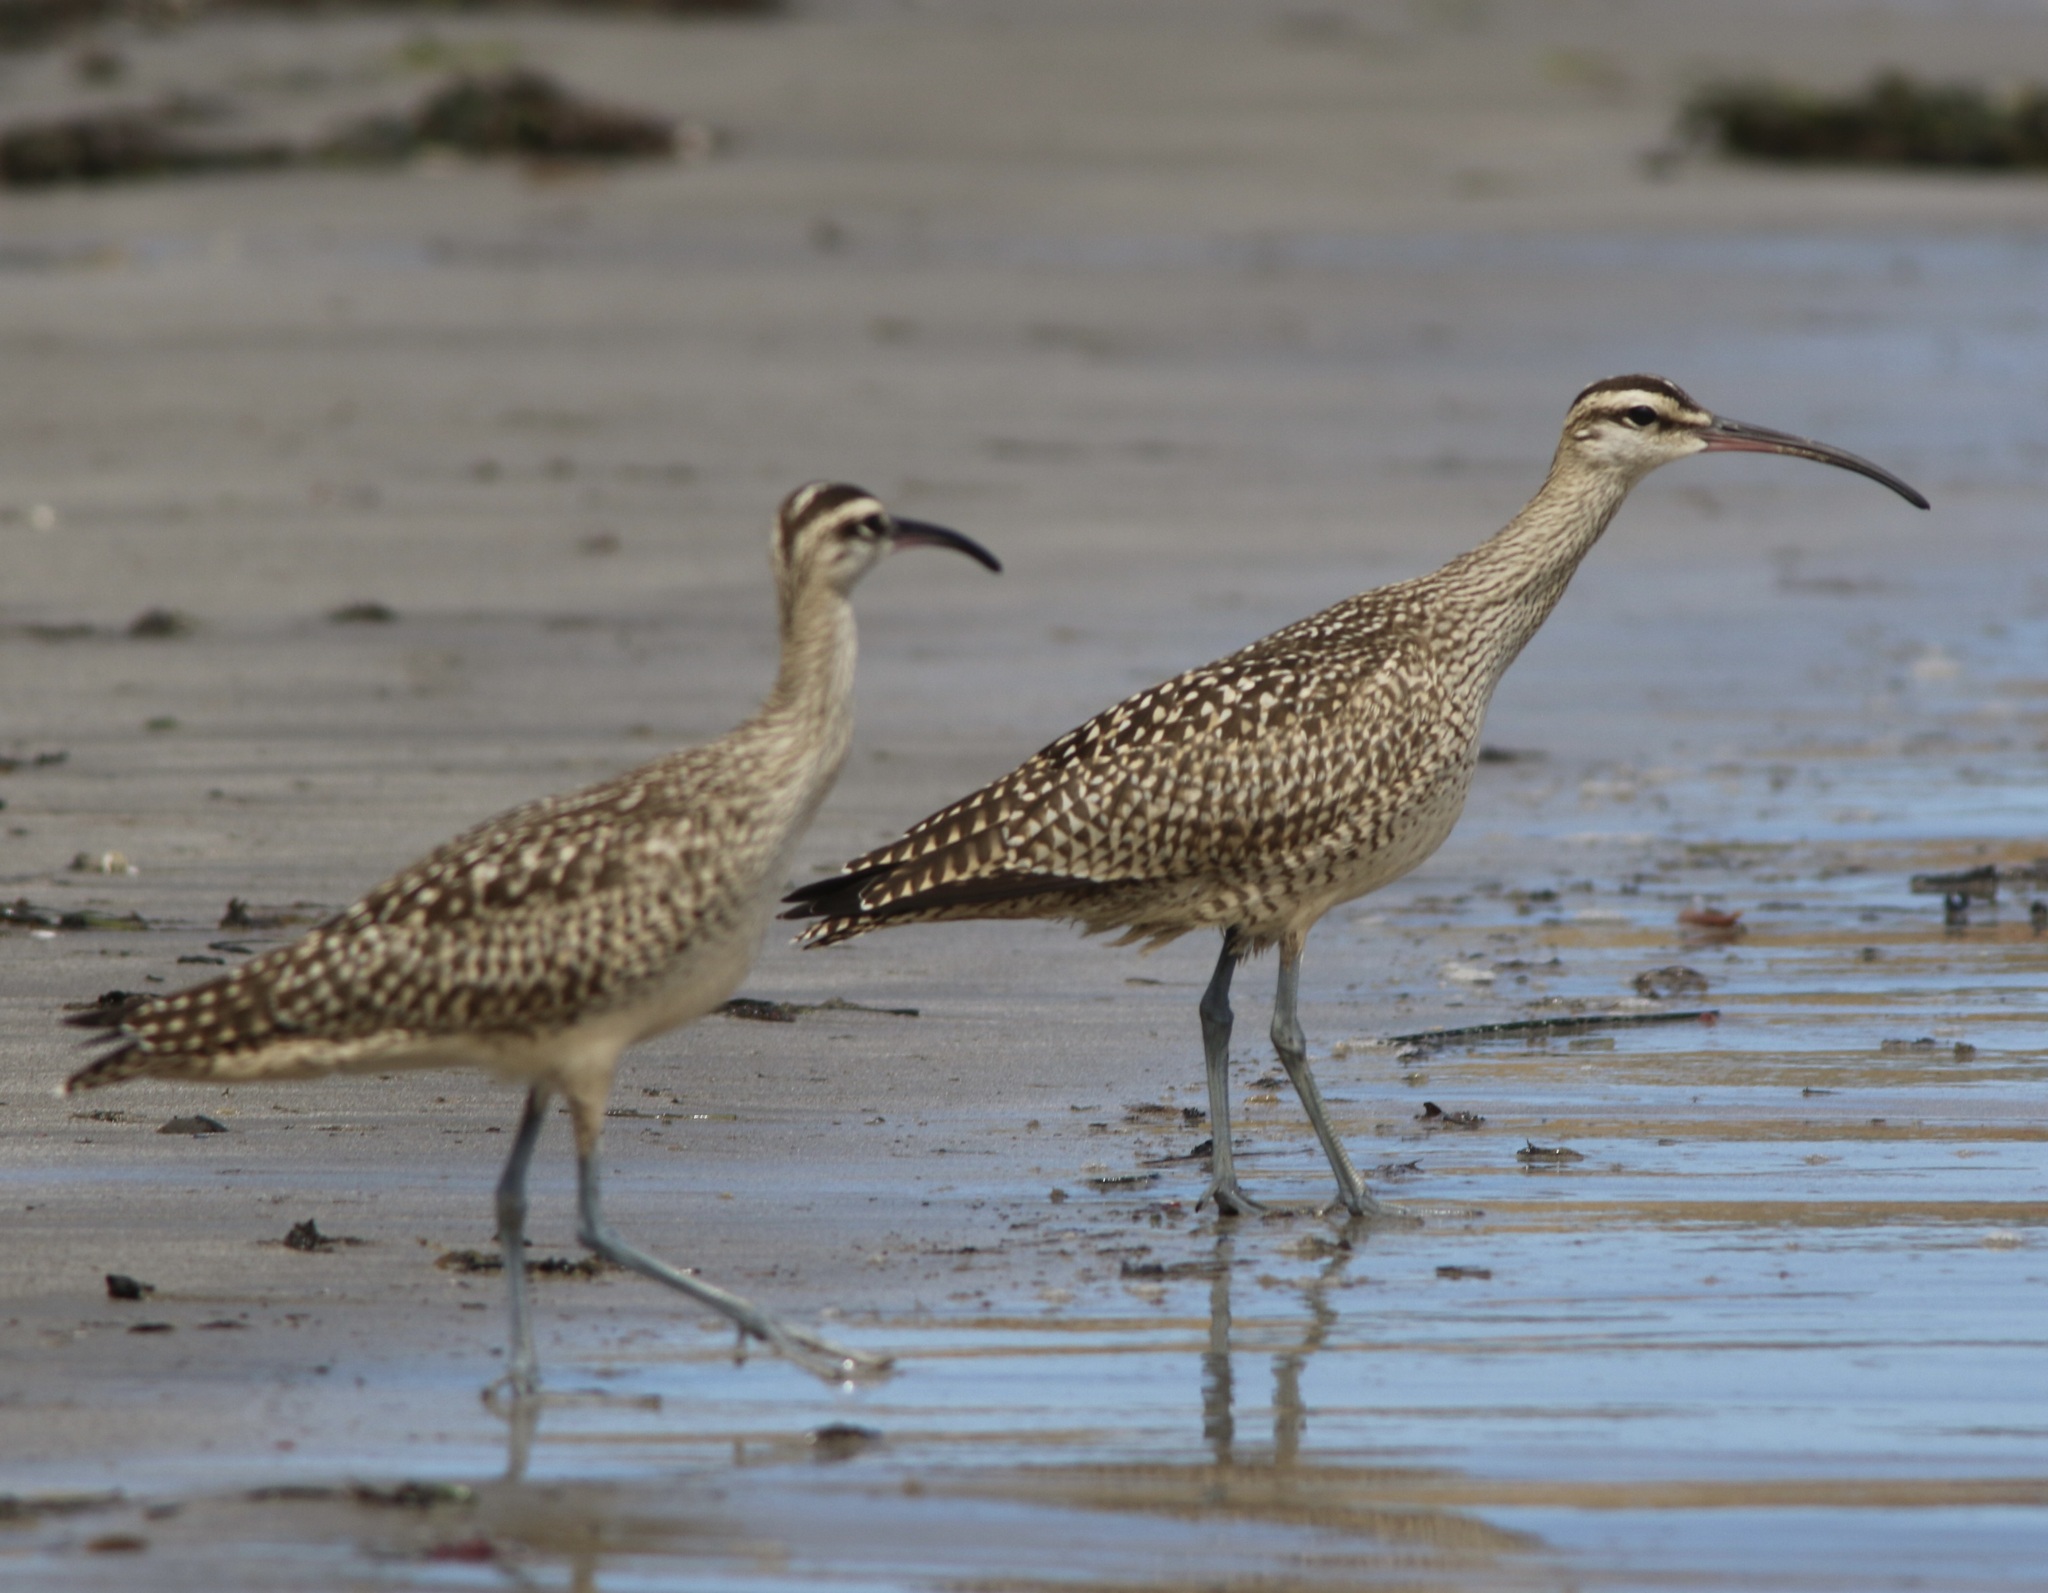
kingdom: Animalia
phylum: Chordata
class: Aves
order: Charadriiformes
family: Scolopacidae
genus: Numenius
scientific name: Numenius phaeopus
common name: Whimbrel
